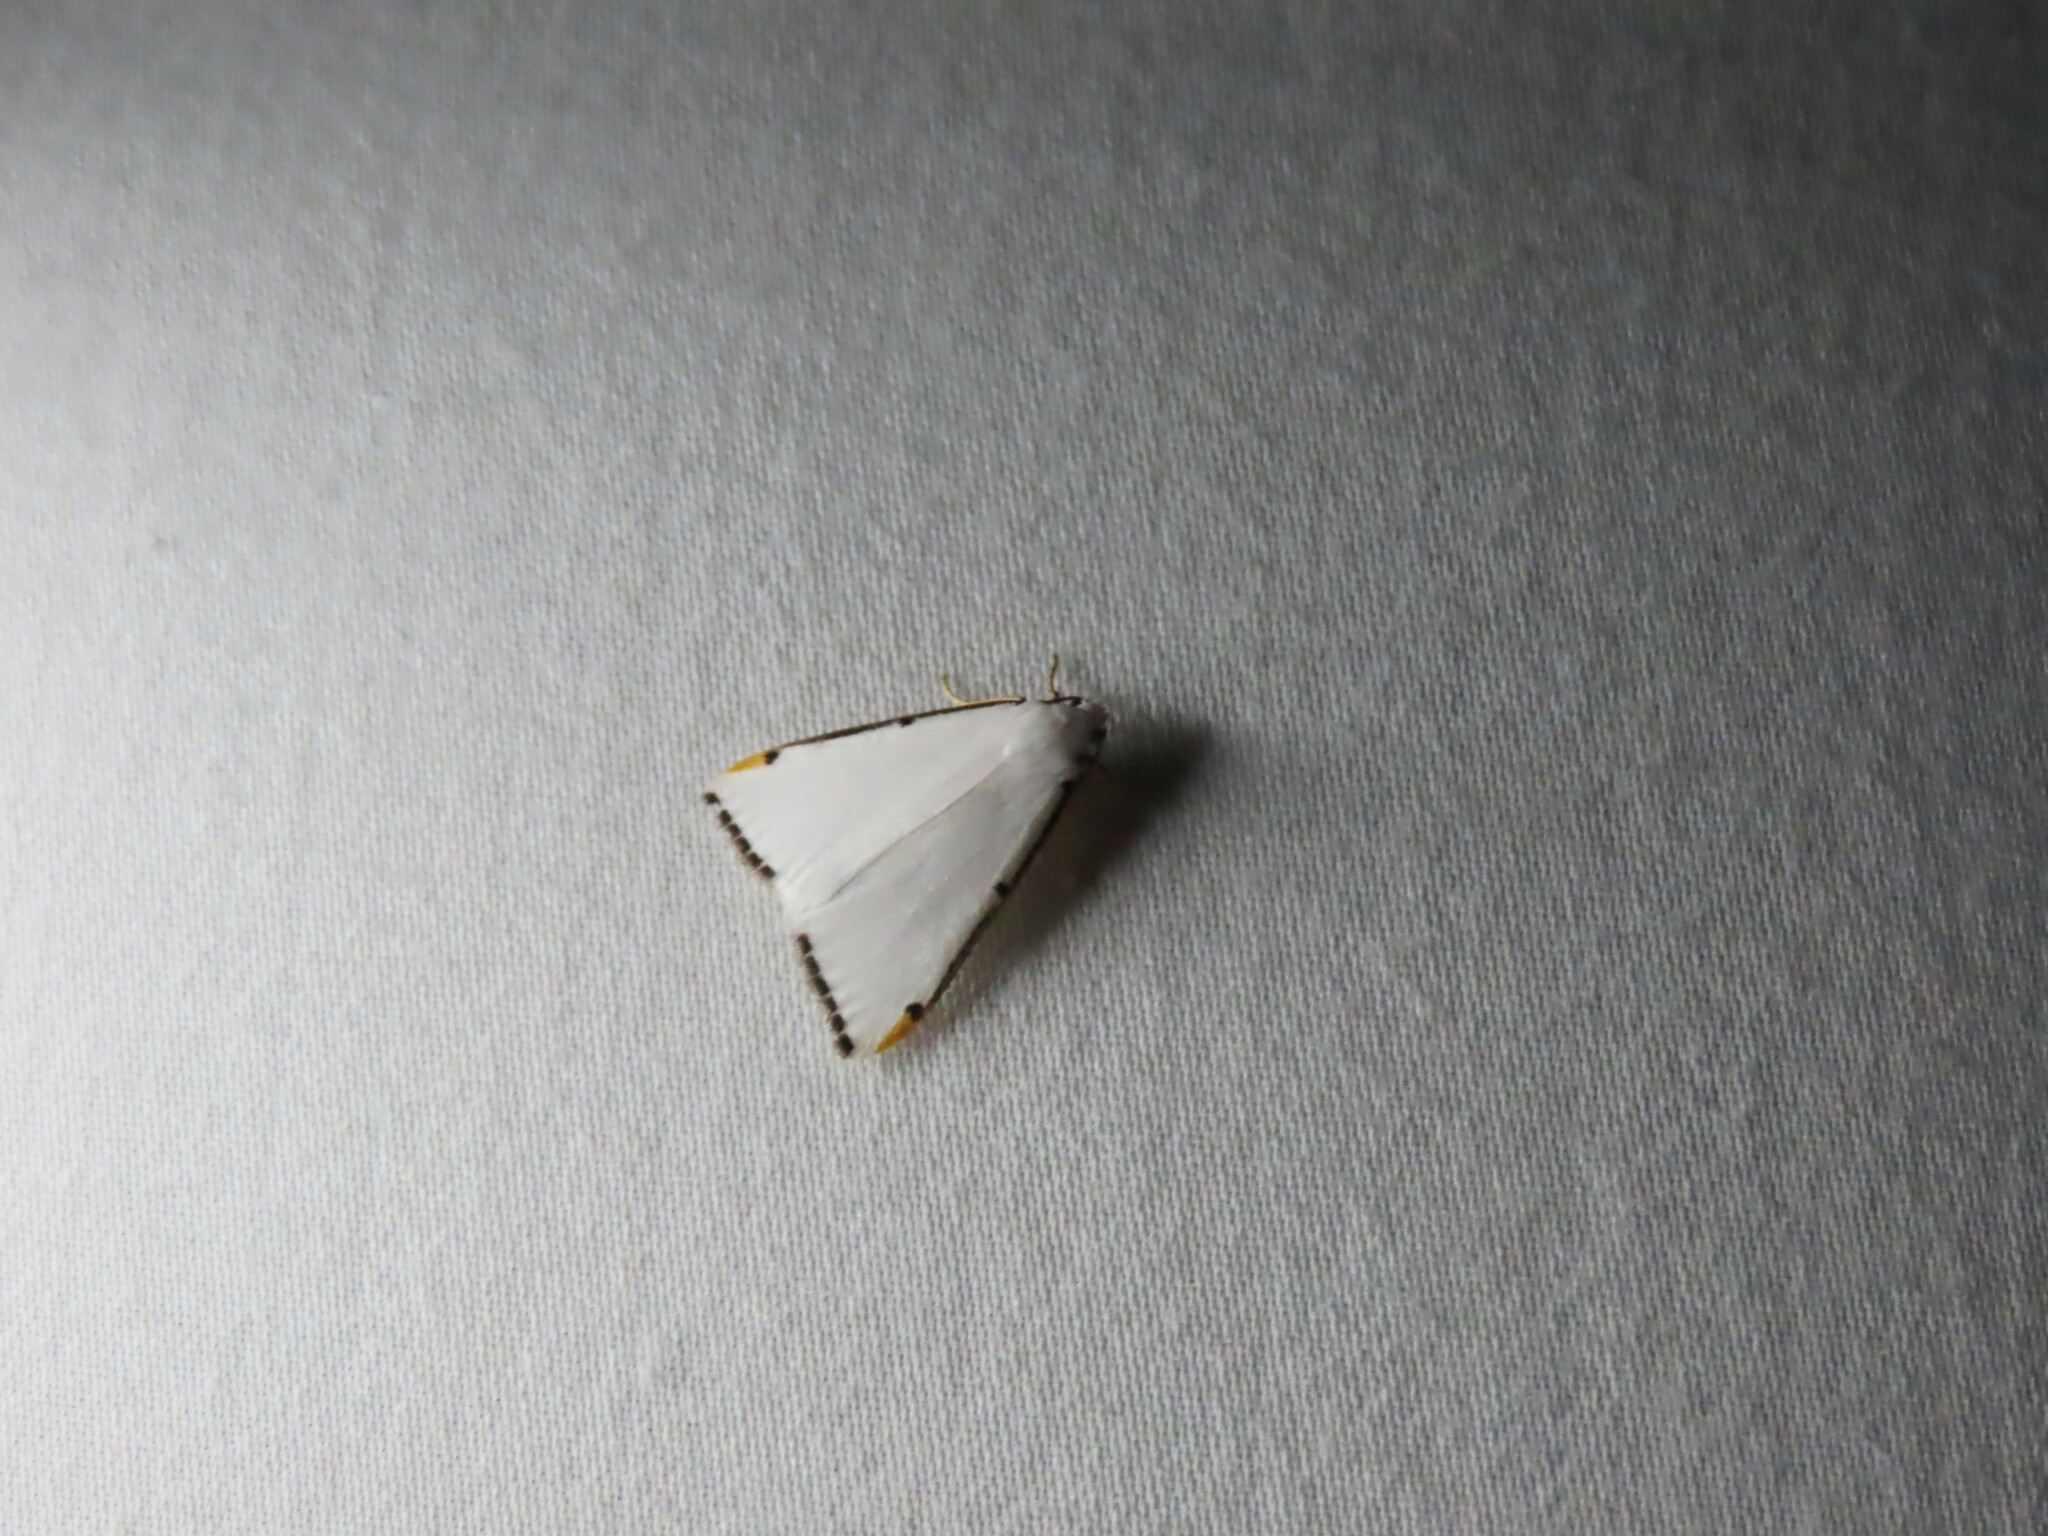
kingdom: Animalia
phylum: Arthropoda
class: Insecta
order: Lepidoptera
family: Erebidae
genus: Termessa
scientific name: Termessa nivosa
